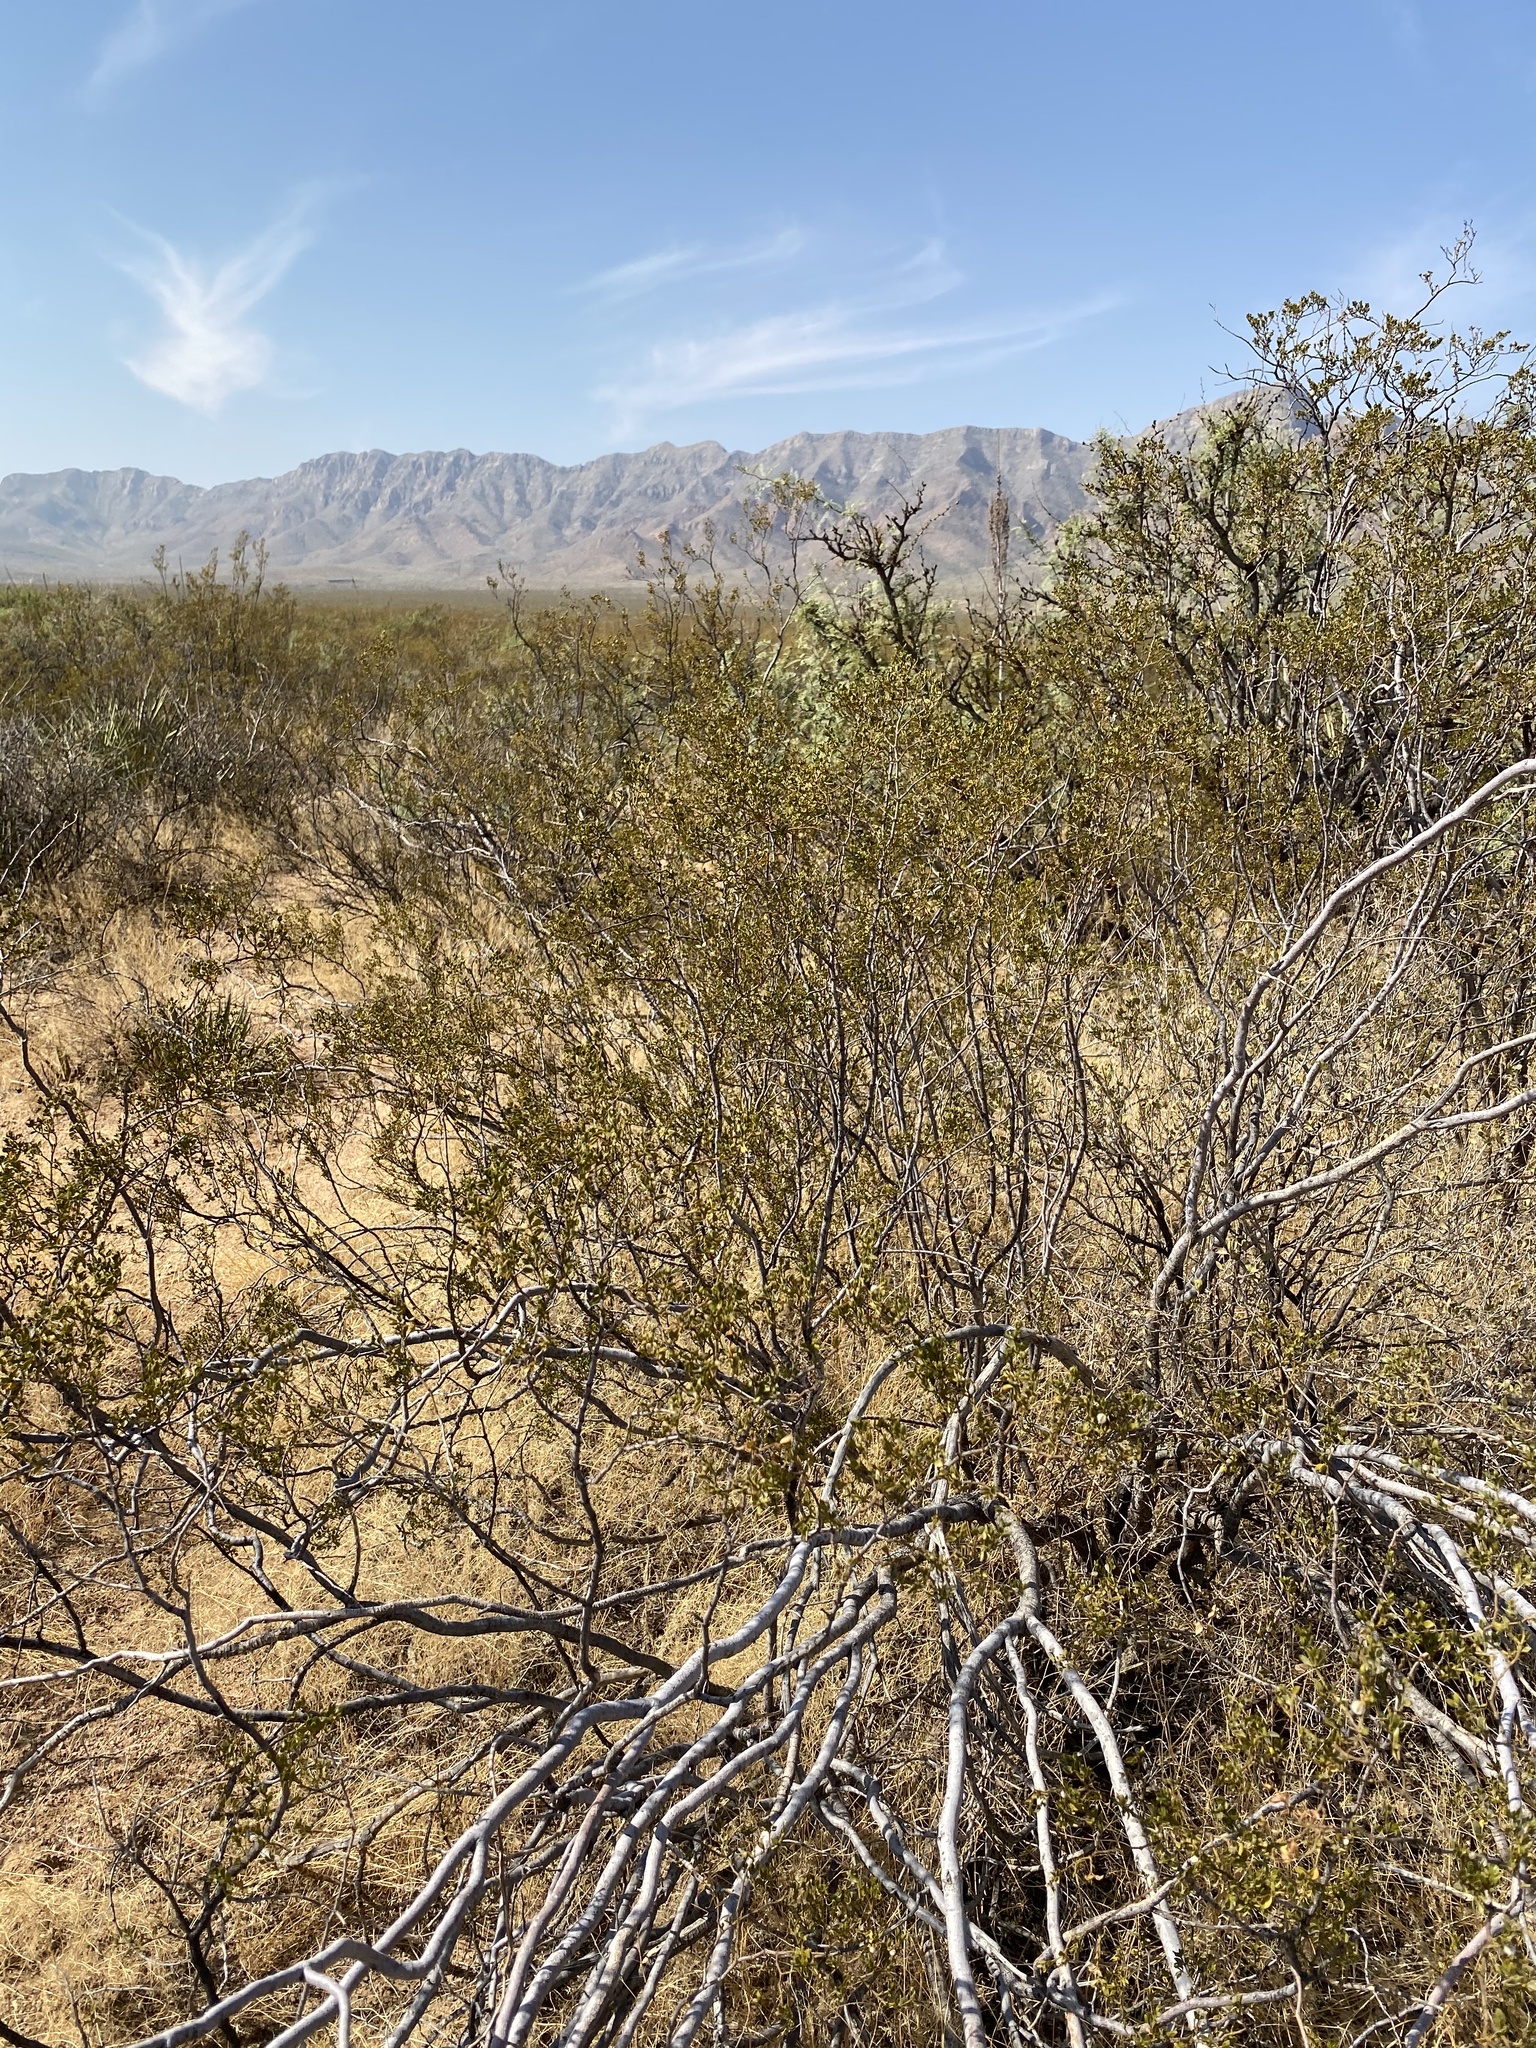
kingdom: Plantae
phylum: Tracheophyta
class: Magnoliopsida
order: Zygophyllales
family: Zygophyllaceae
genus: Larrea
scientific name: Larrea tridentata
